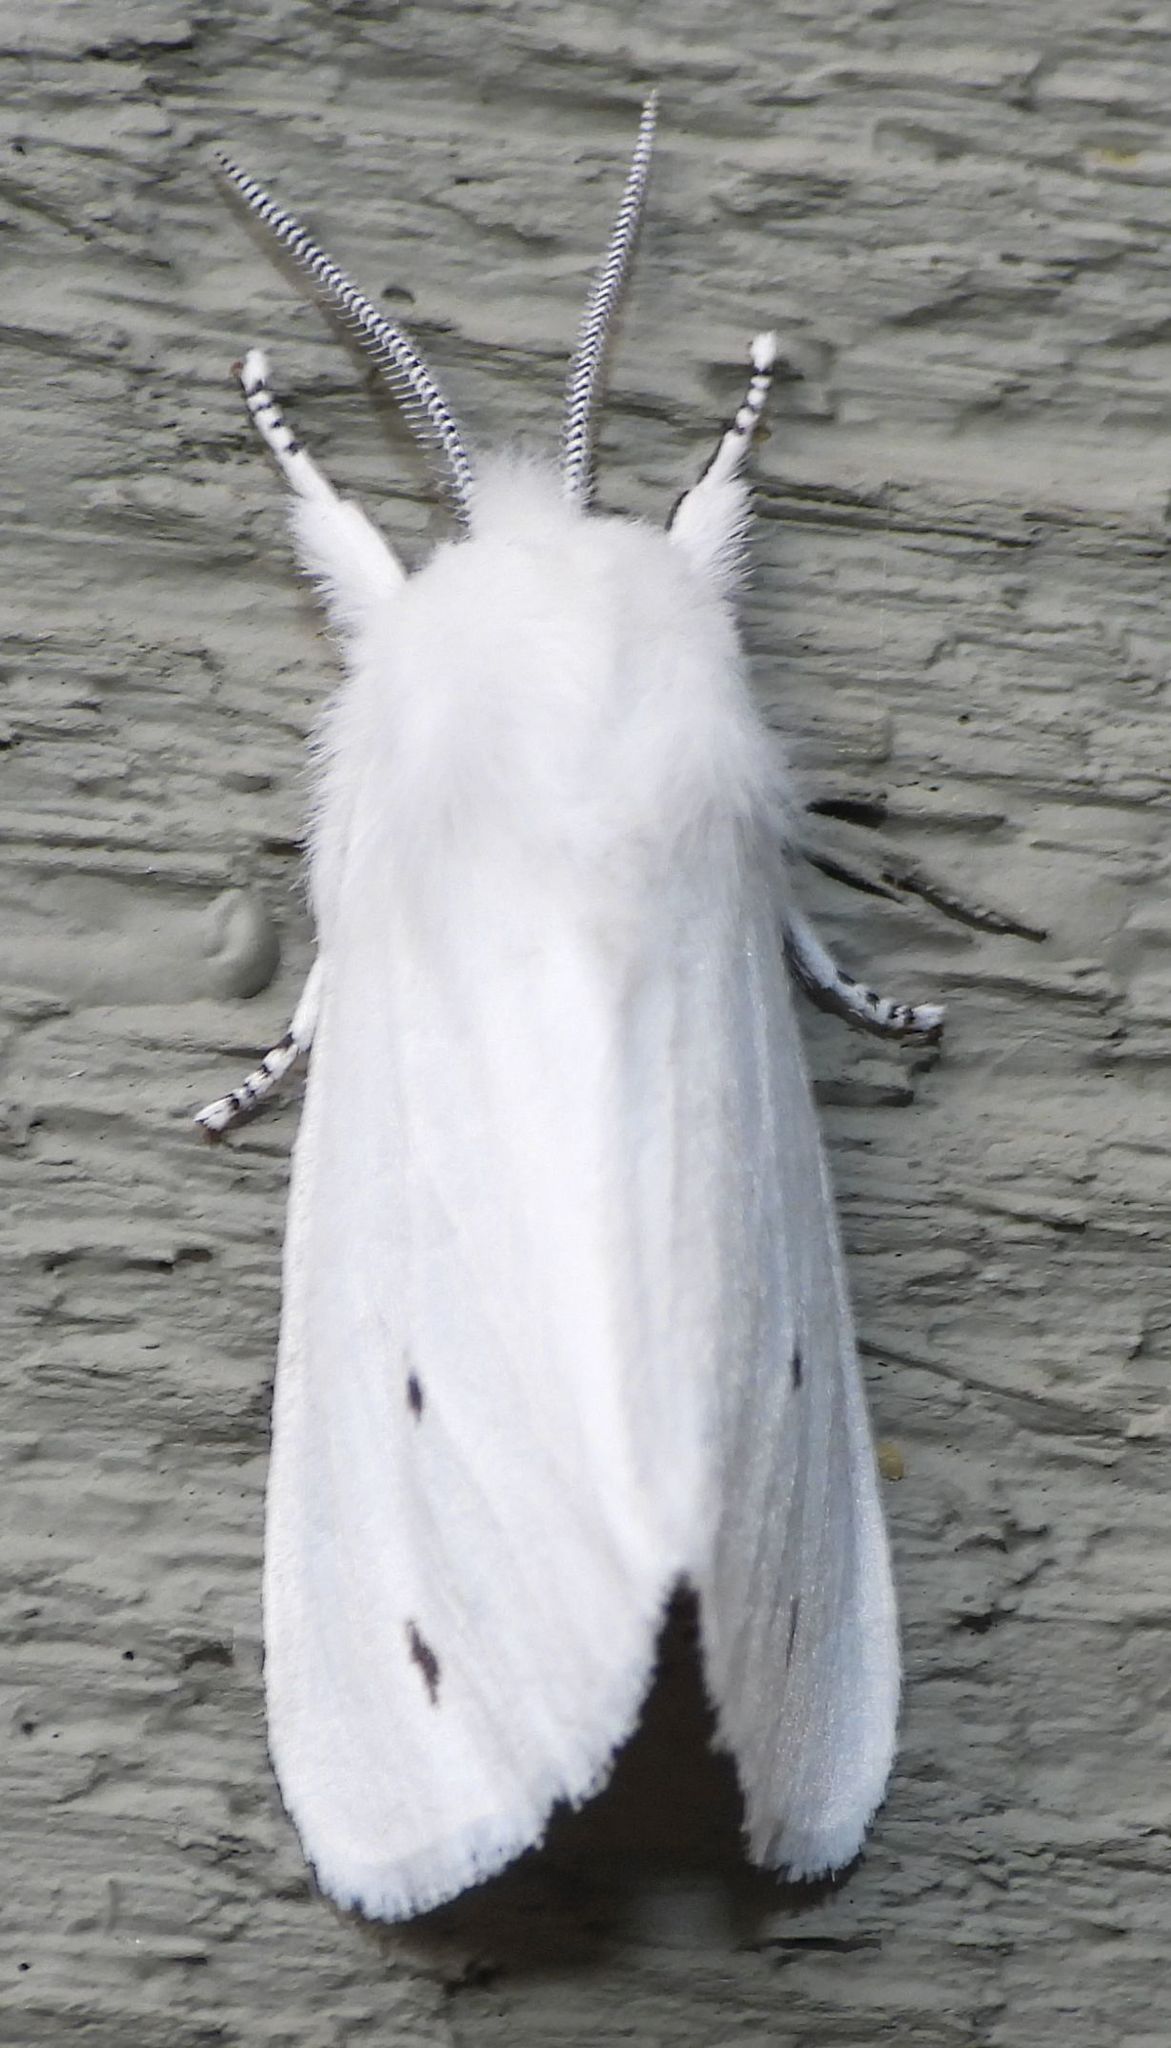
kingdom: Animalia
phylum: Arthropoda
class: Insecta
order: Lepidoptera
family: Erebidae
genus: Spilosoma
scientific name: Spilosoma virginica
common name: Virginia tiger moth
